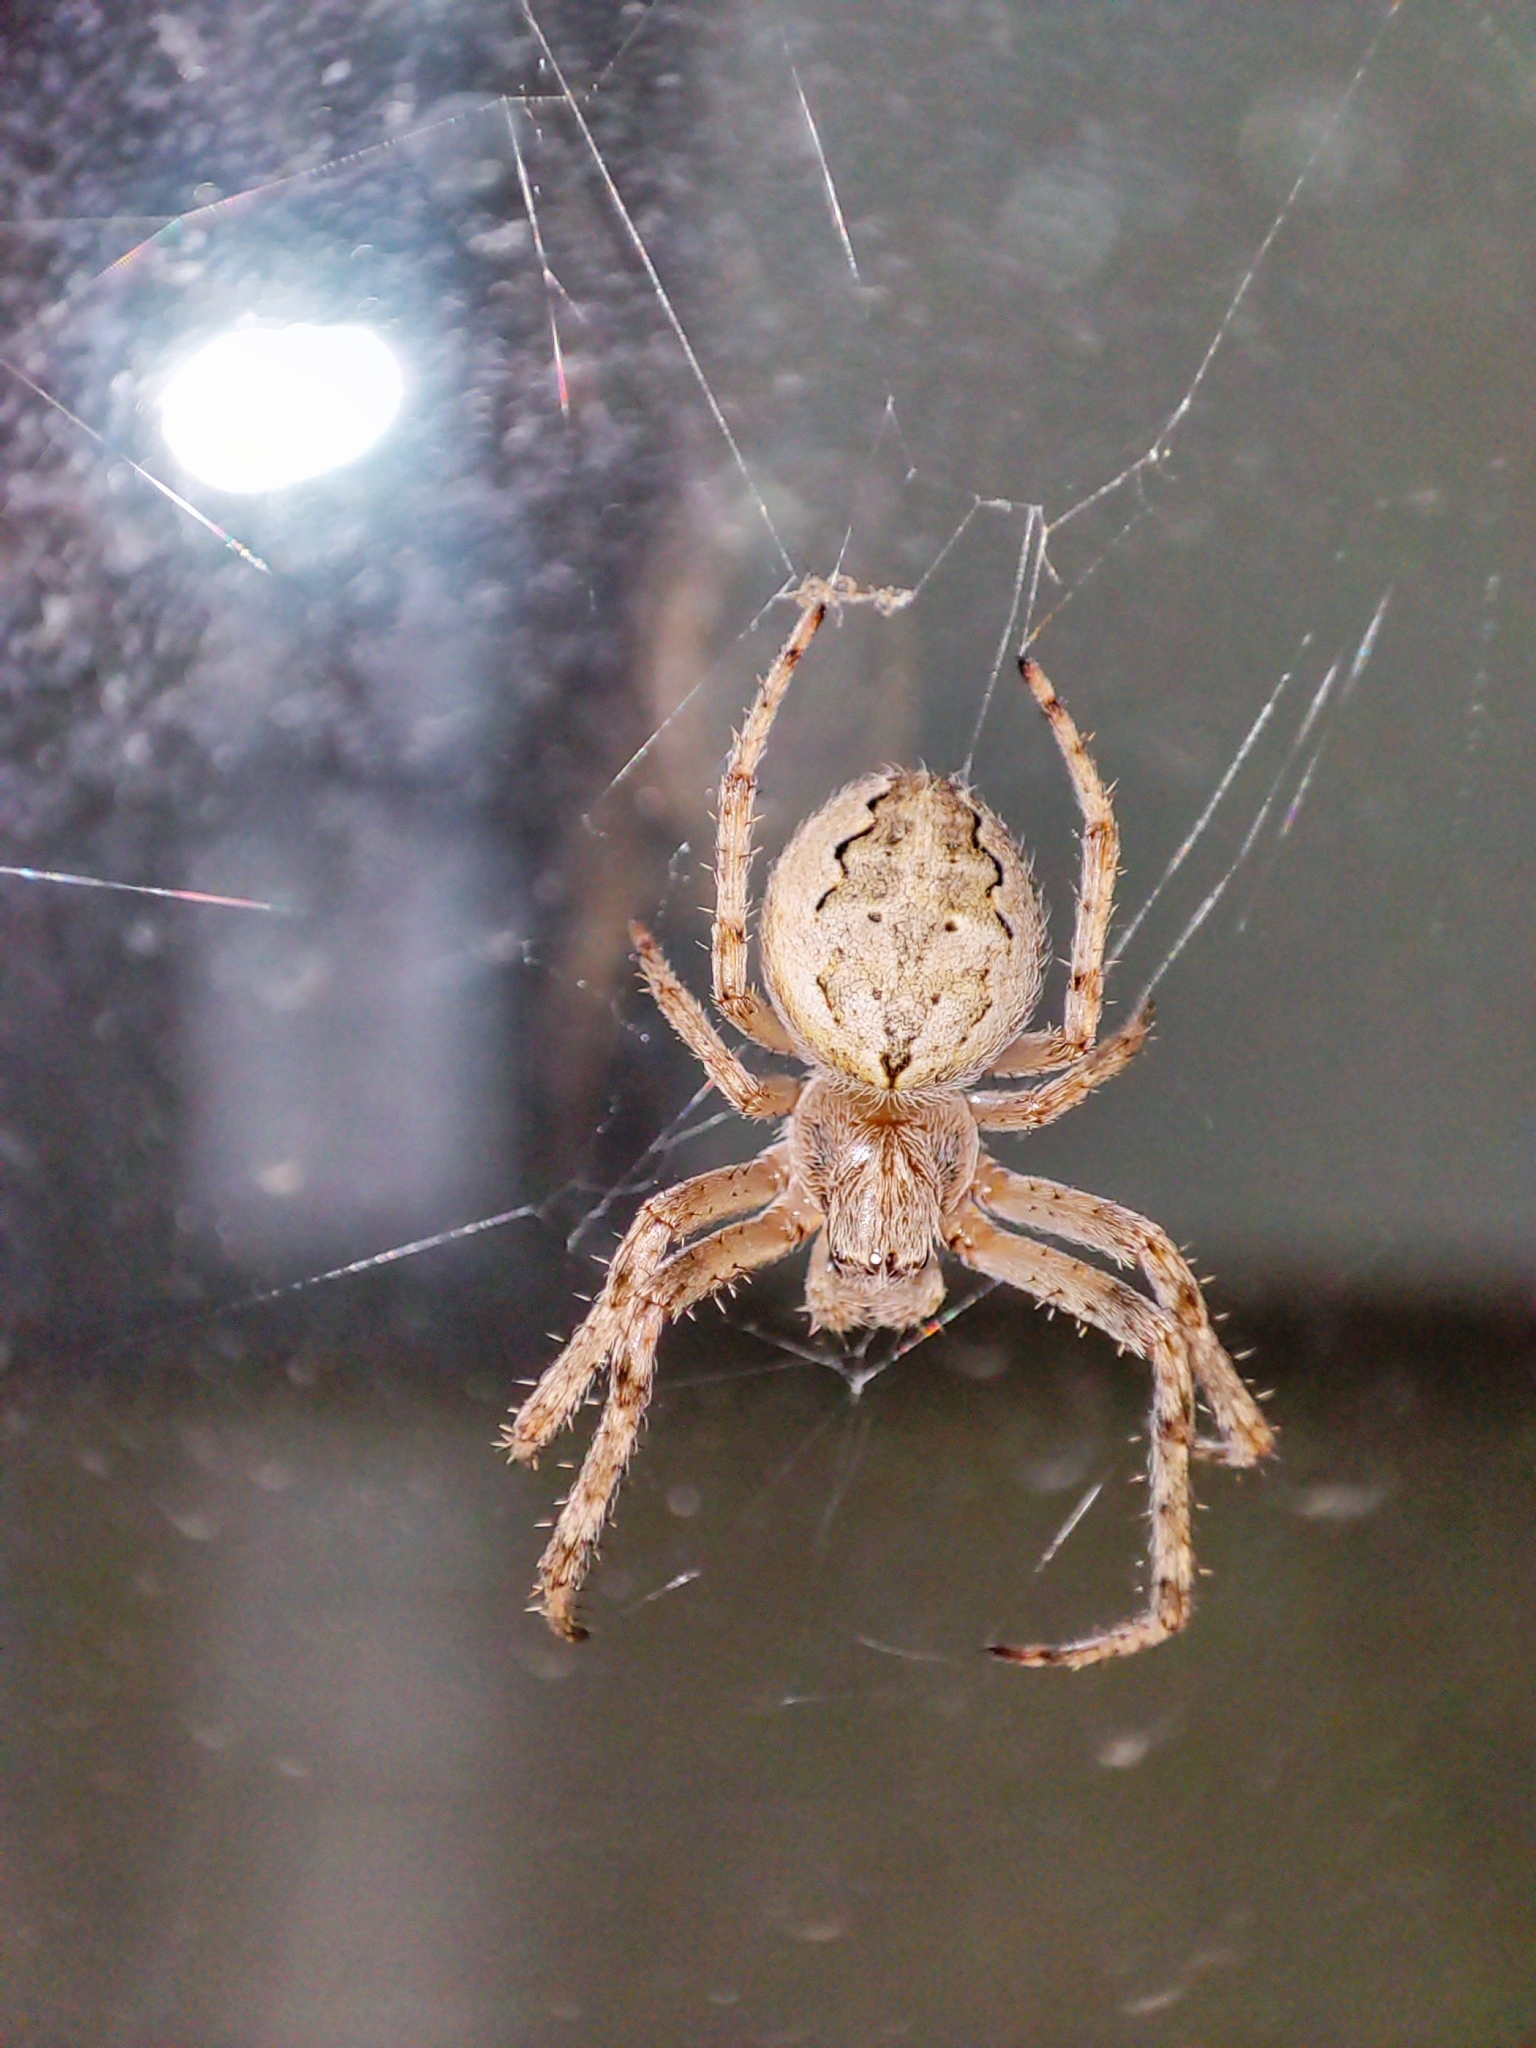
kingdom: Animalia
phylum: Arthropoda
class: Arachnida
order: Araneae
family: Araneidae
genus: Larinioides
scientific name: Larinioides ixobolus
